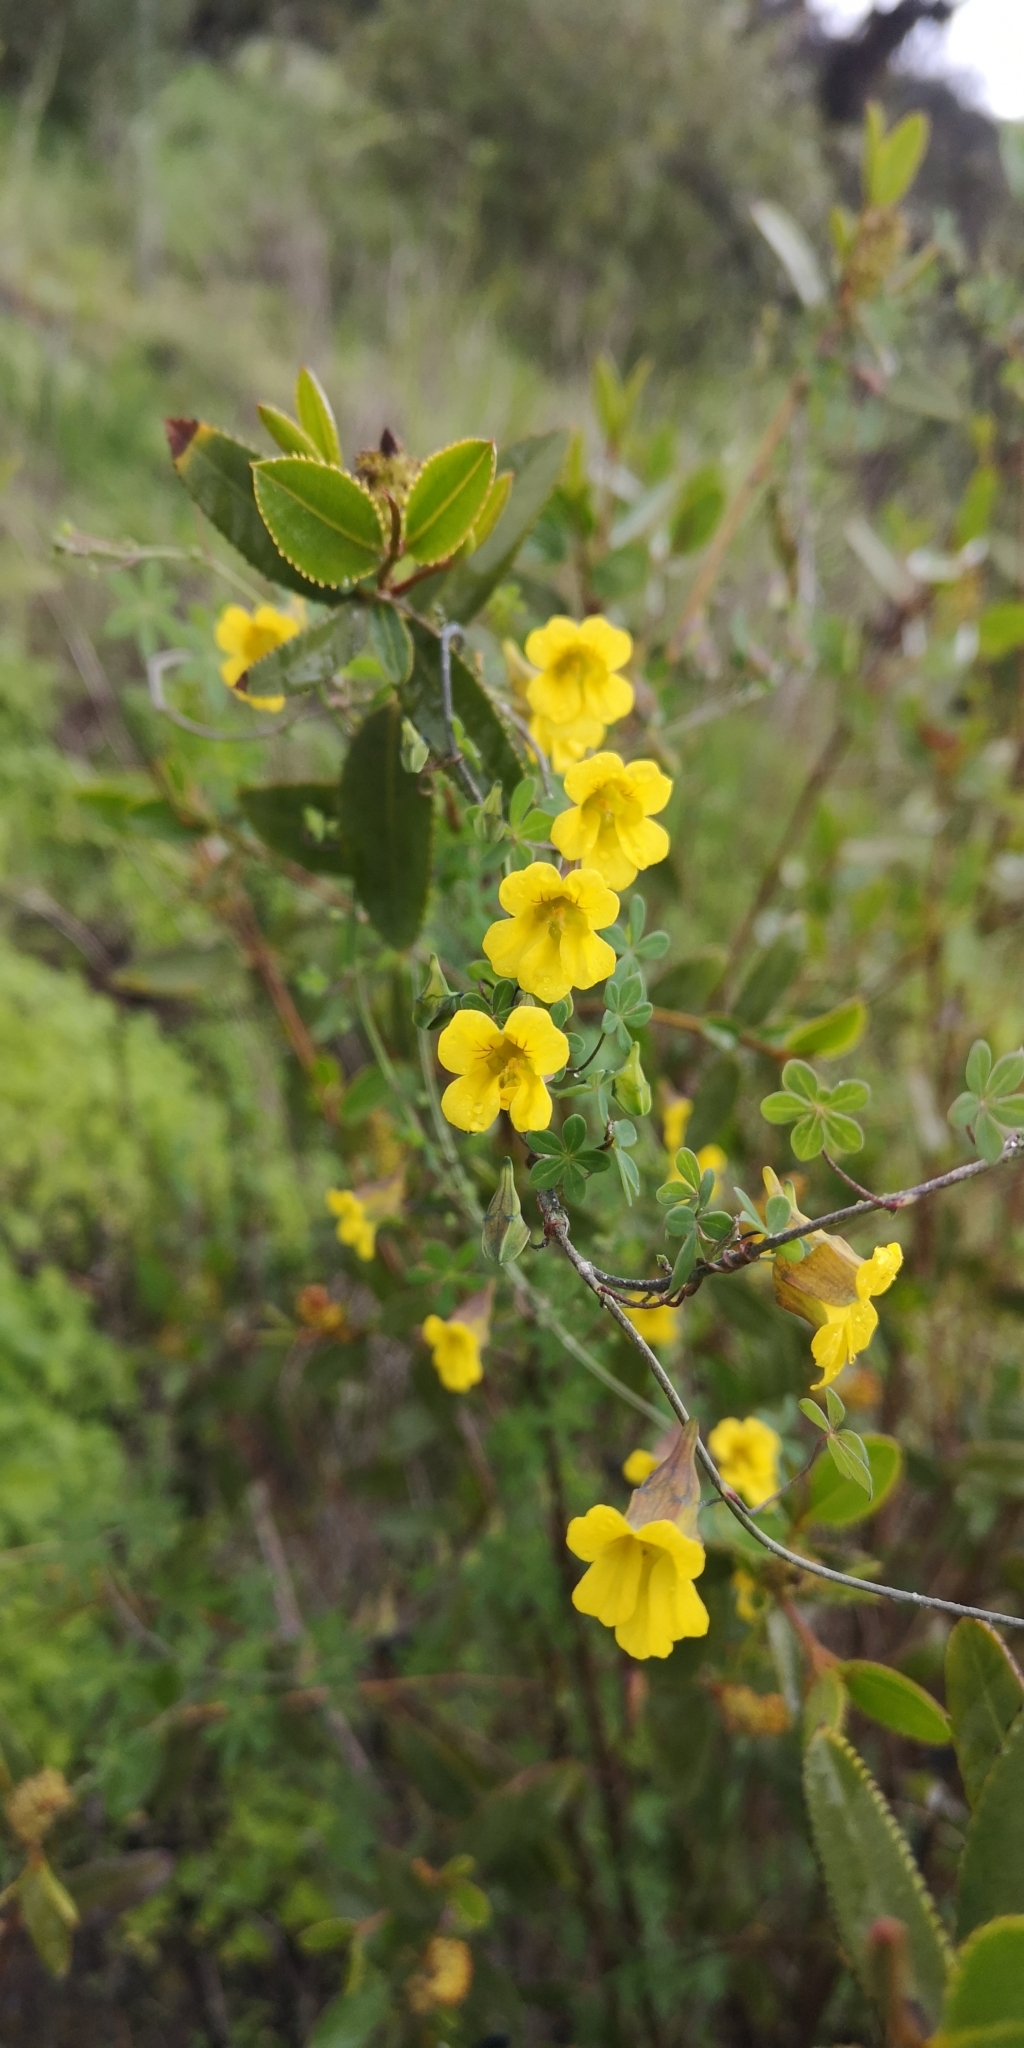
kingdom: Plantae
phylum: Tracheophyta
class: Magnoliopsida
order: Brassicales
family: Tropaeolaceae
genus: Tropaeolum
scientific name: Tropaeolum brachyceras
